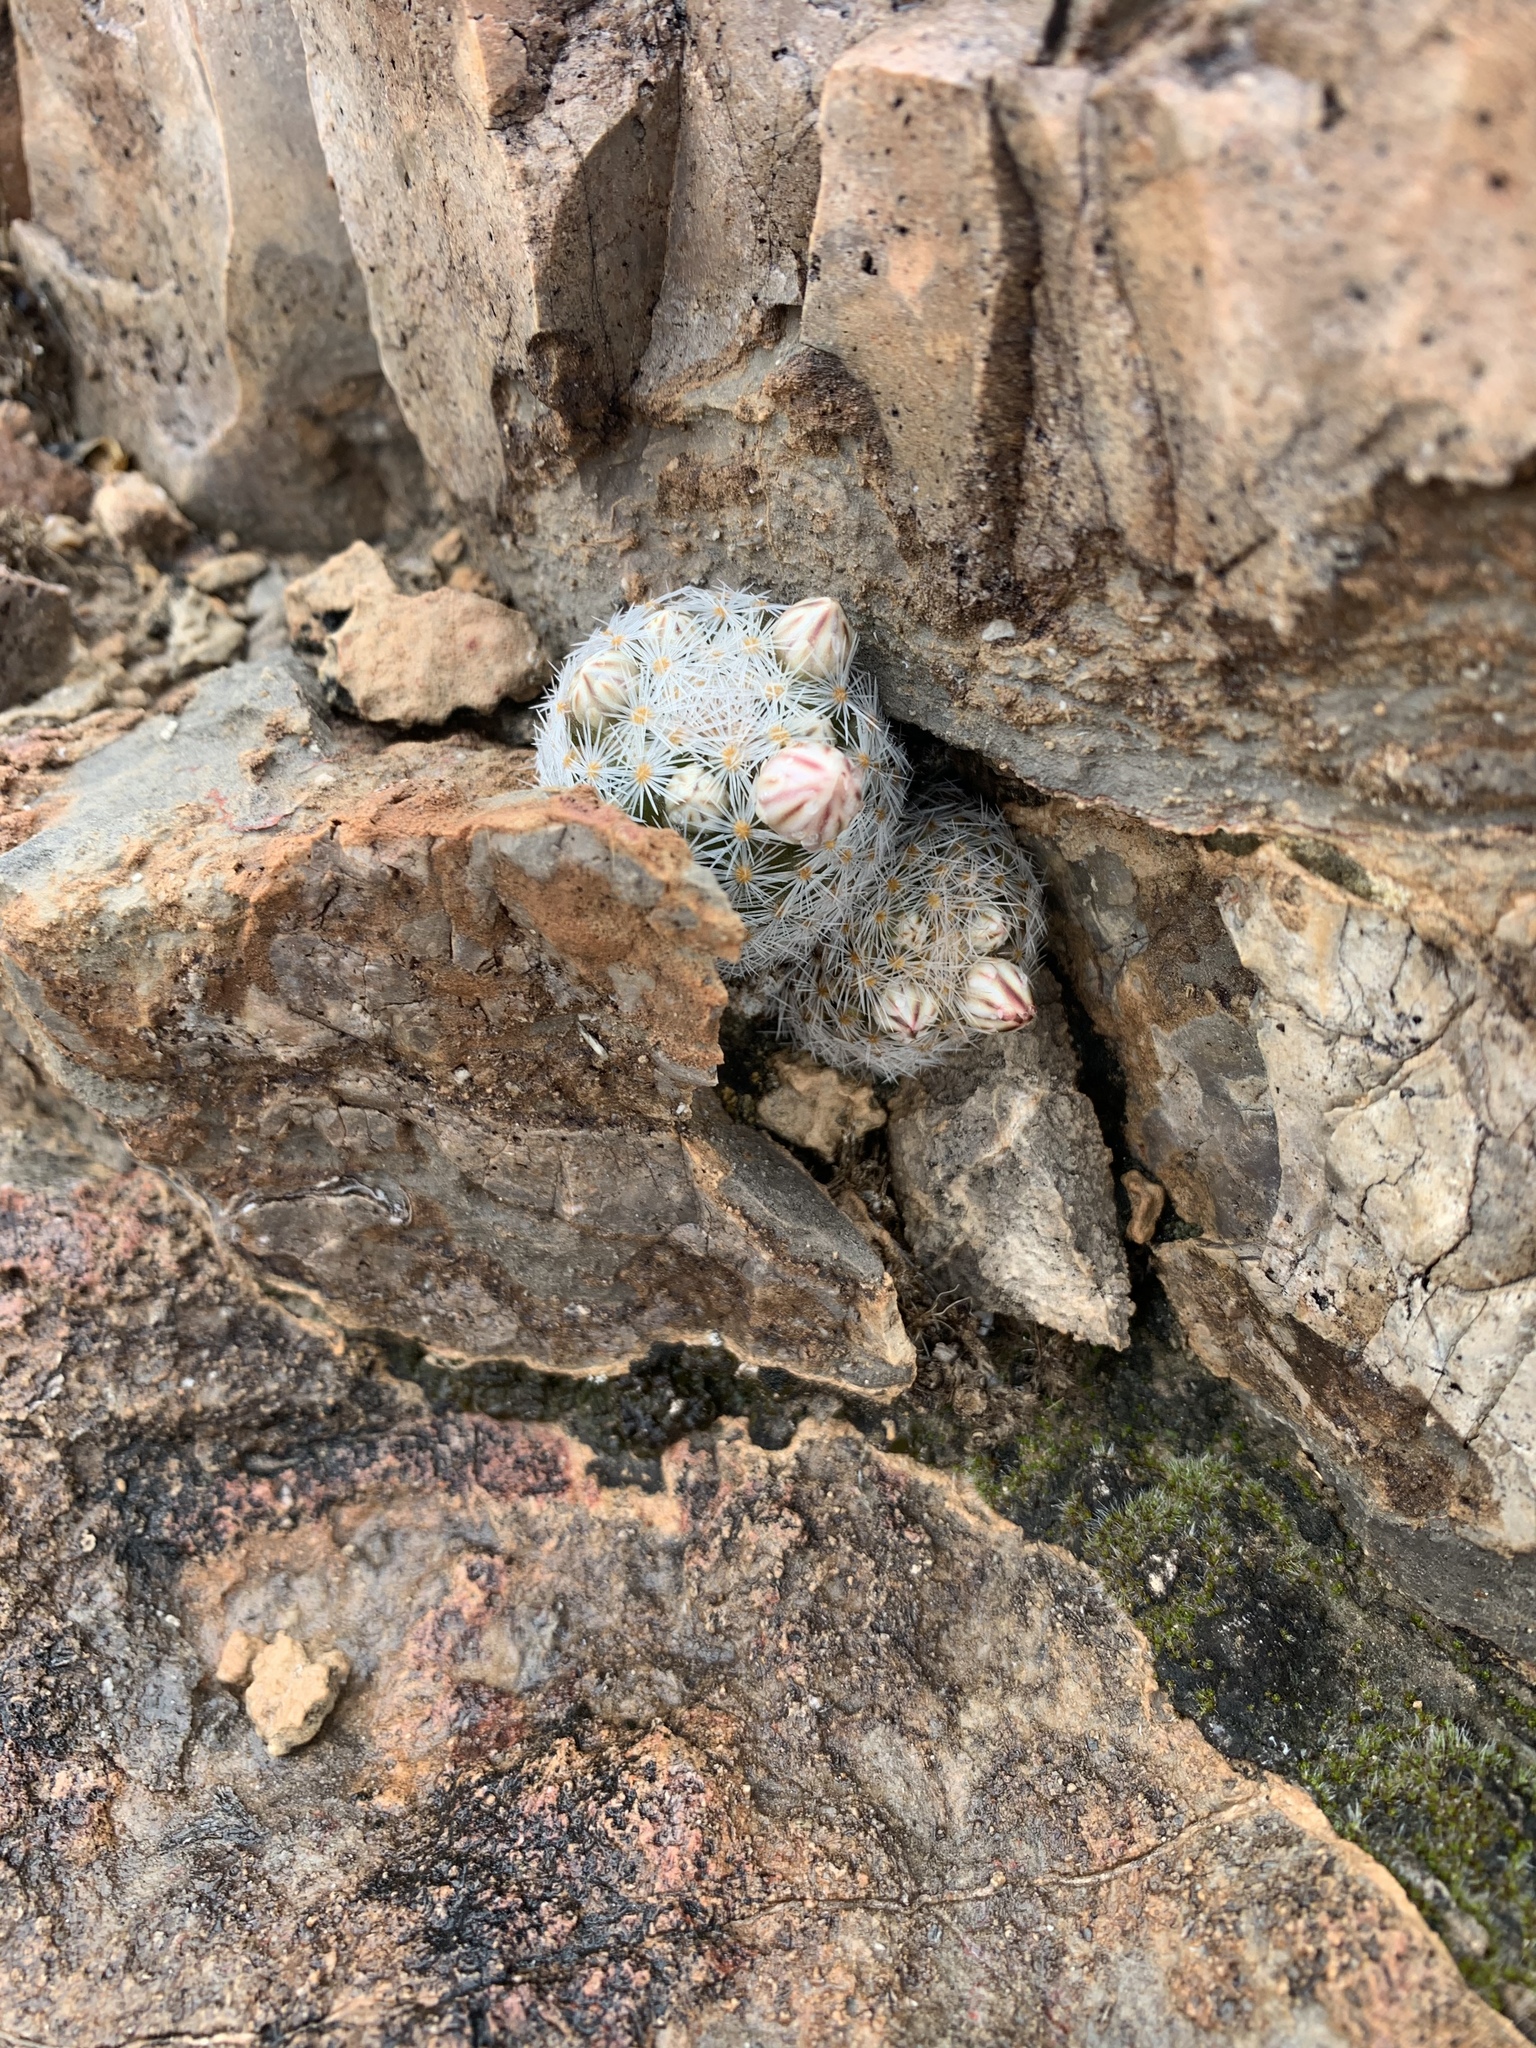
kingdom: Plantae
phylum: Tracheophyta
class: Magnoliopsida
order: Caryophyllales
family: Cactaceae
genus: Mammillaria
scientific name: Mammillaria lasiacantha
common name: Lace-spine nipple cactus
